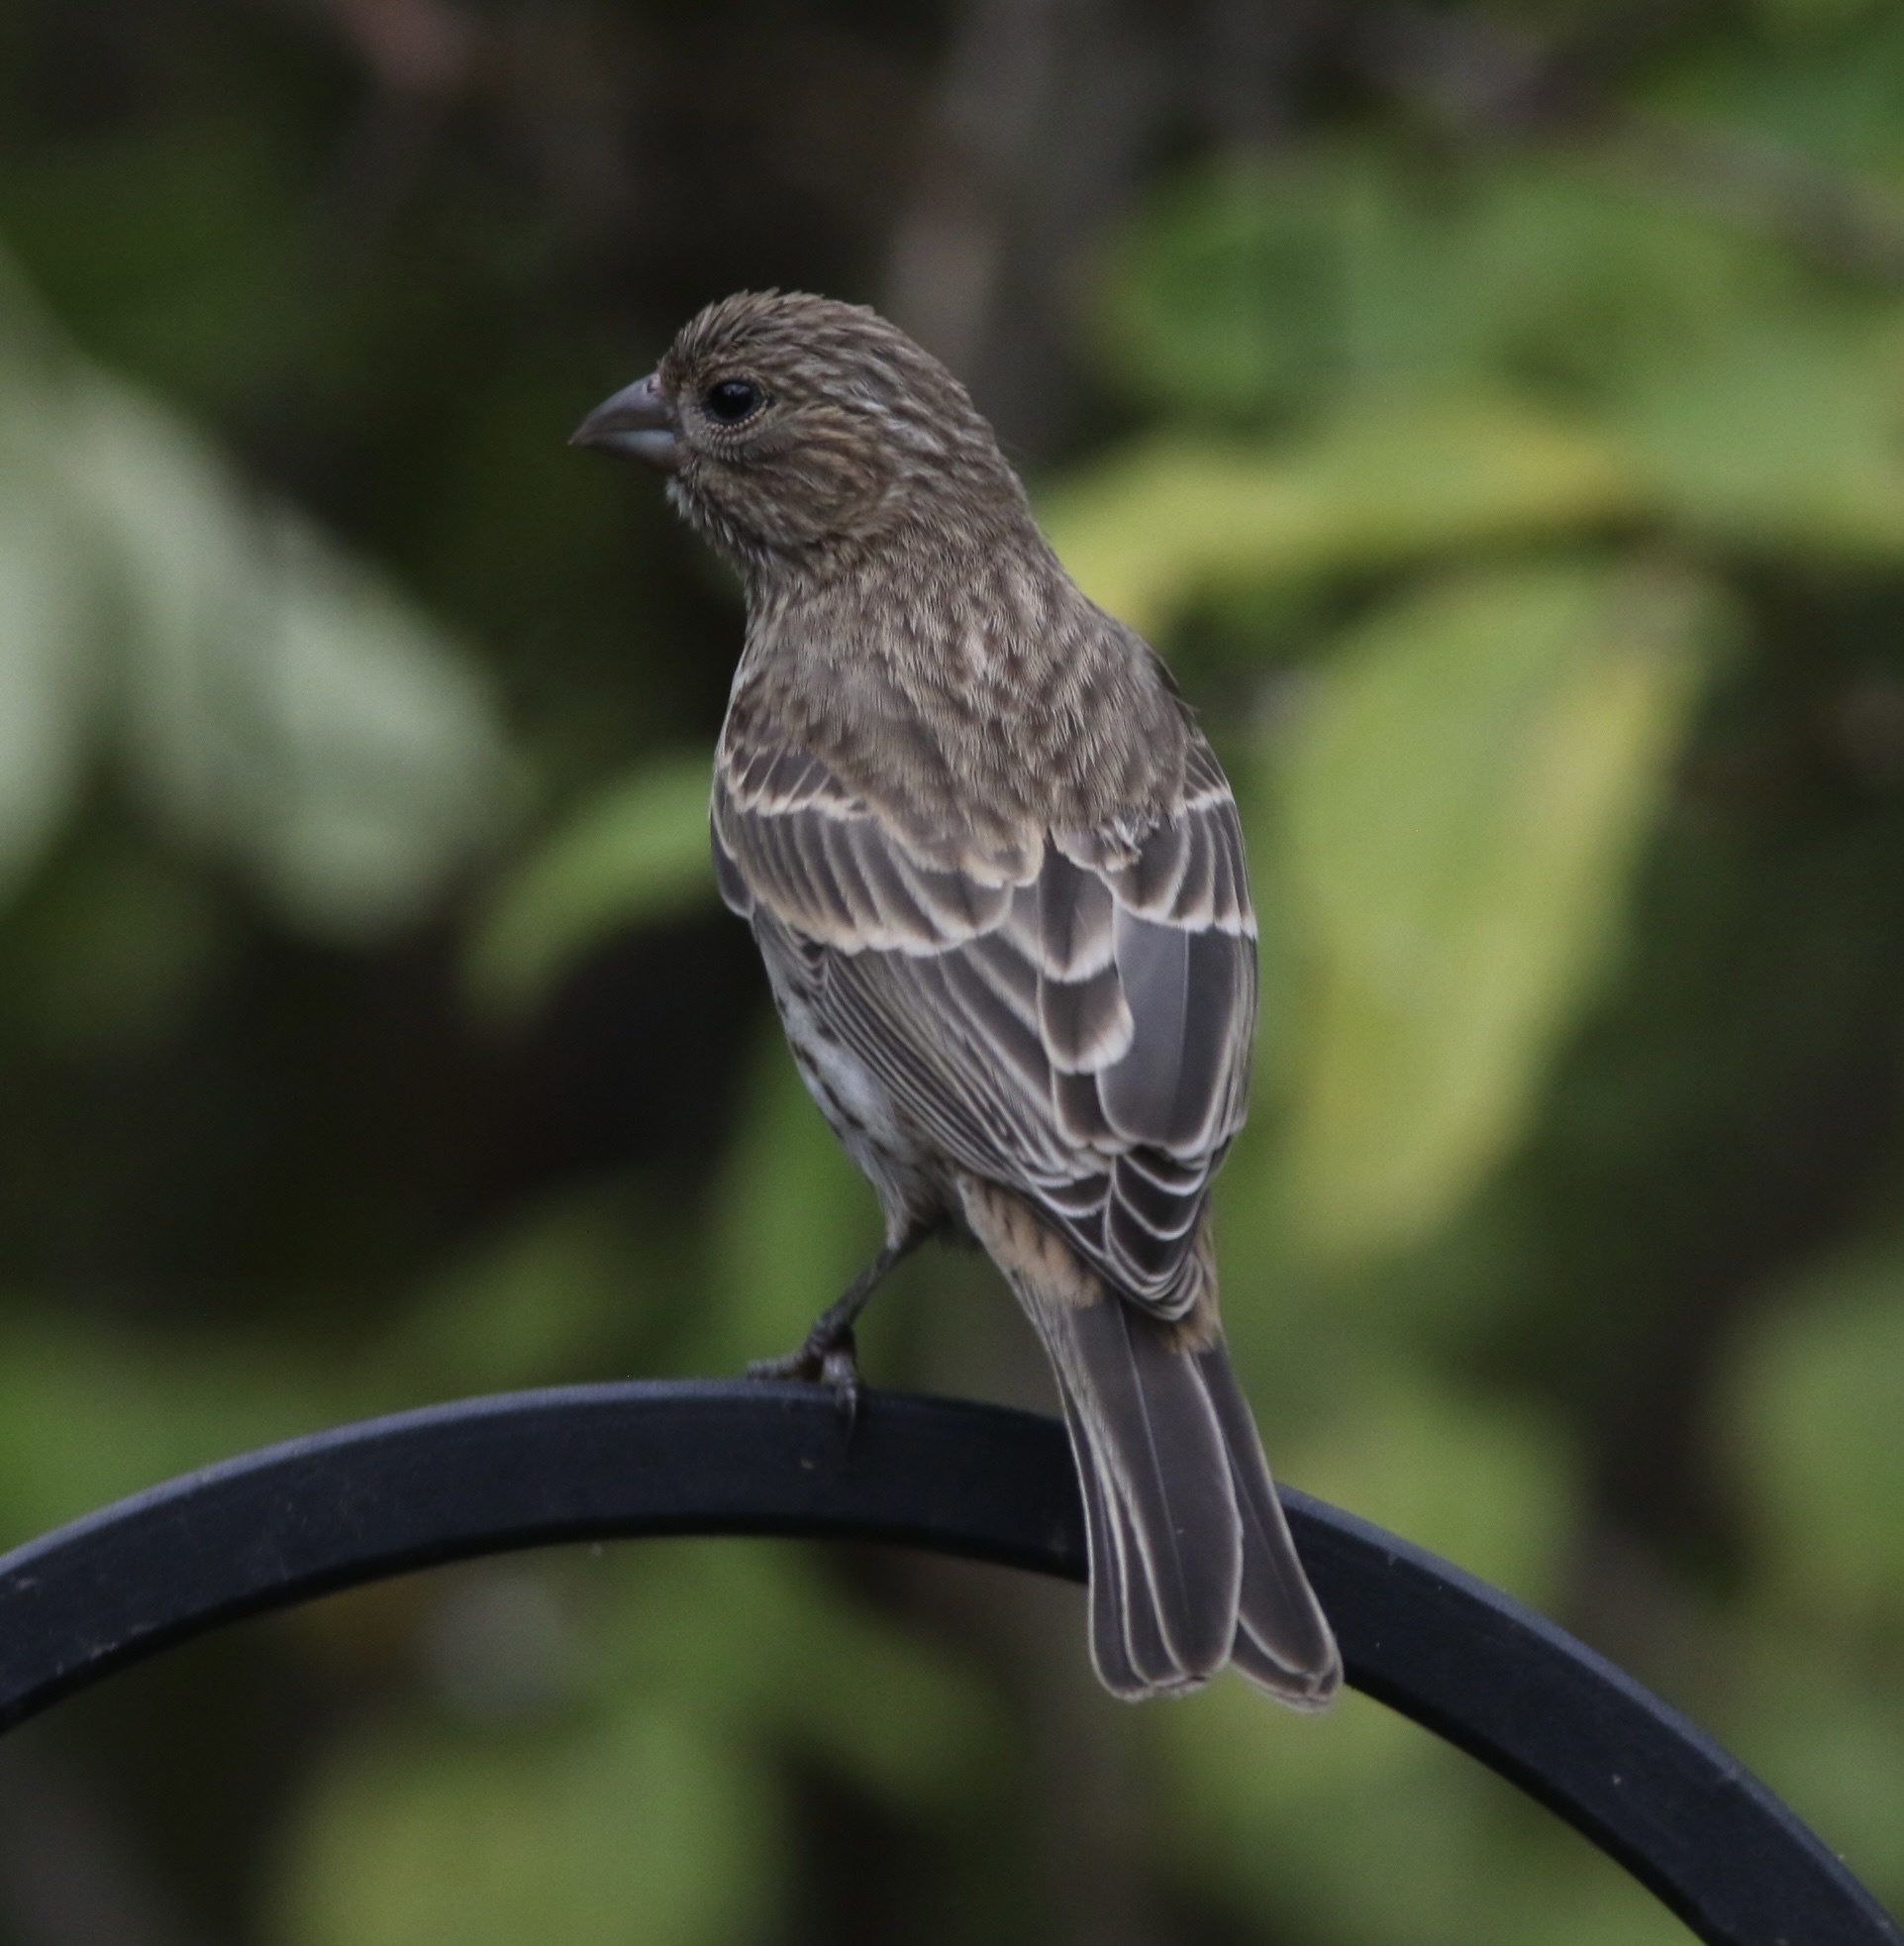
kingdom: Animalia
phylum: Chordata
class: Aves
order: Passeriformes
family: Fringillidae
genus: Haemorhous
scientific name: Haemorhous mexicanus
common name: House finch
